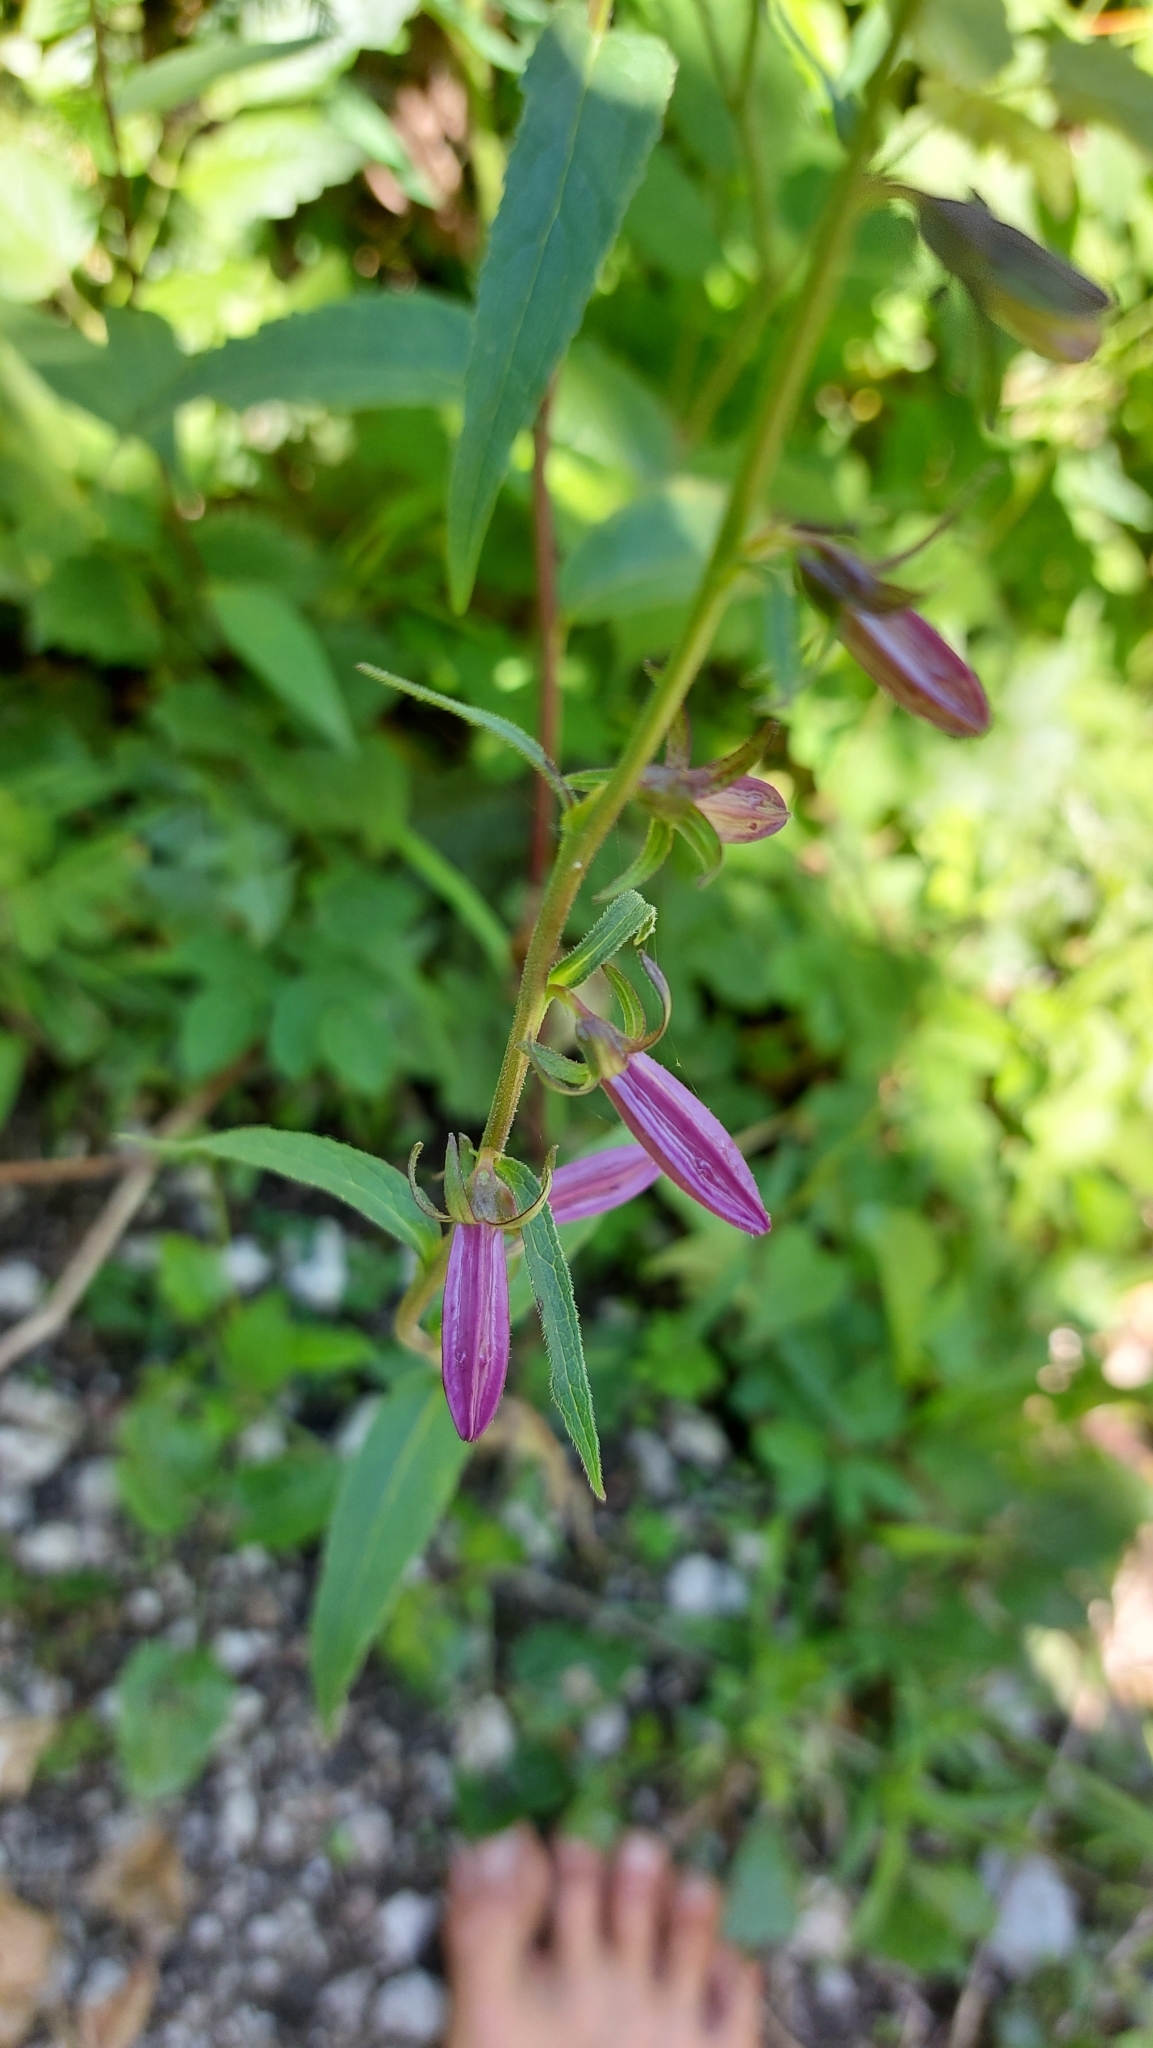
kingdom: Plantae
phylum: Tracheophyta
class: Magnoliopsida
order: Asterales
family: Campanulaceae
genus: Campanula
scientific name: Campanula rapunculoides
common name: Creeping bellflower
